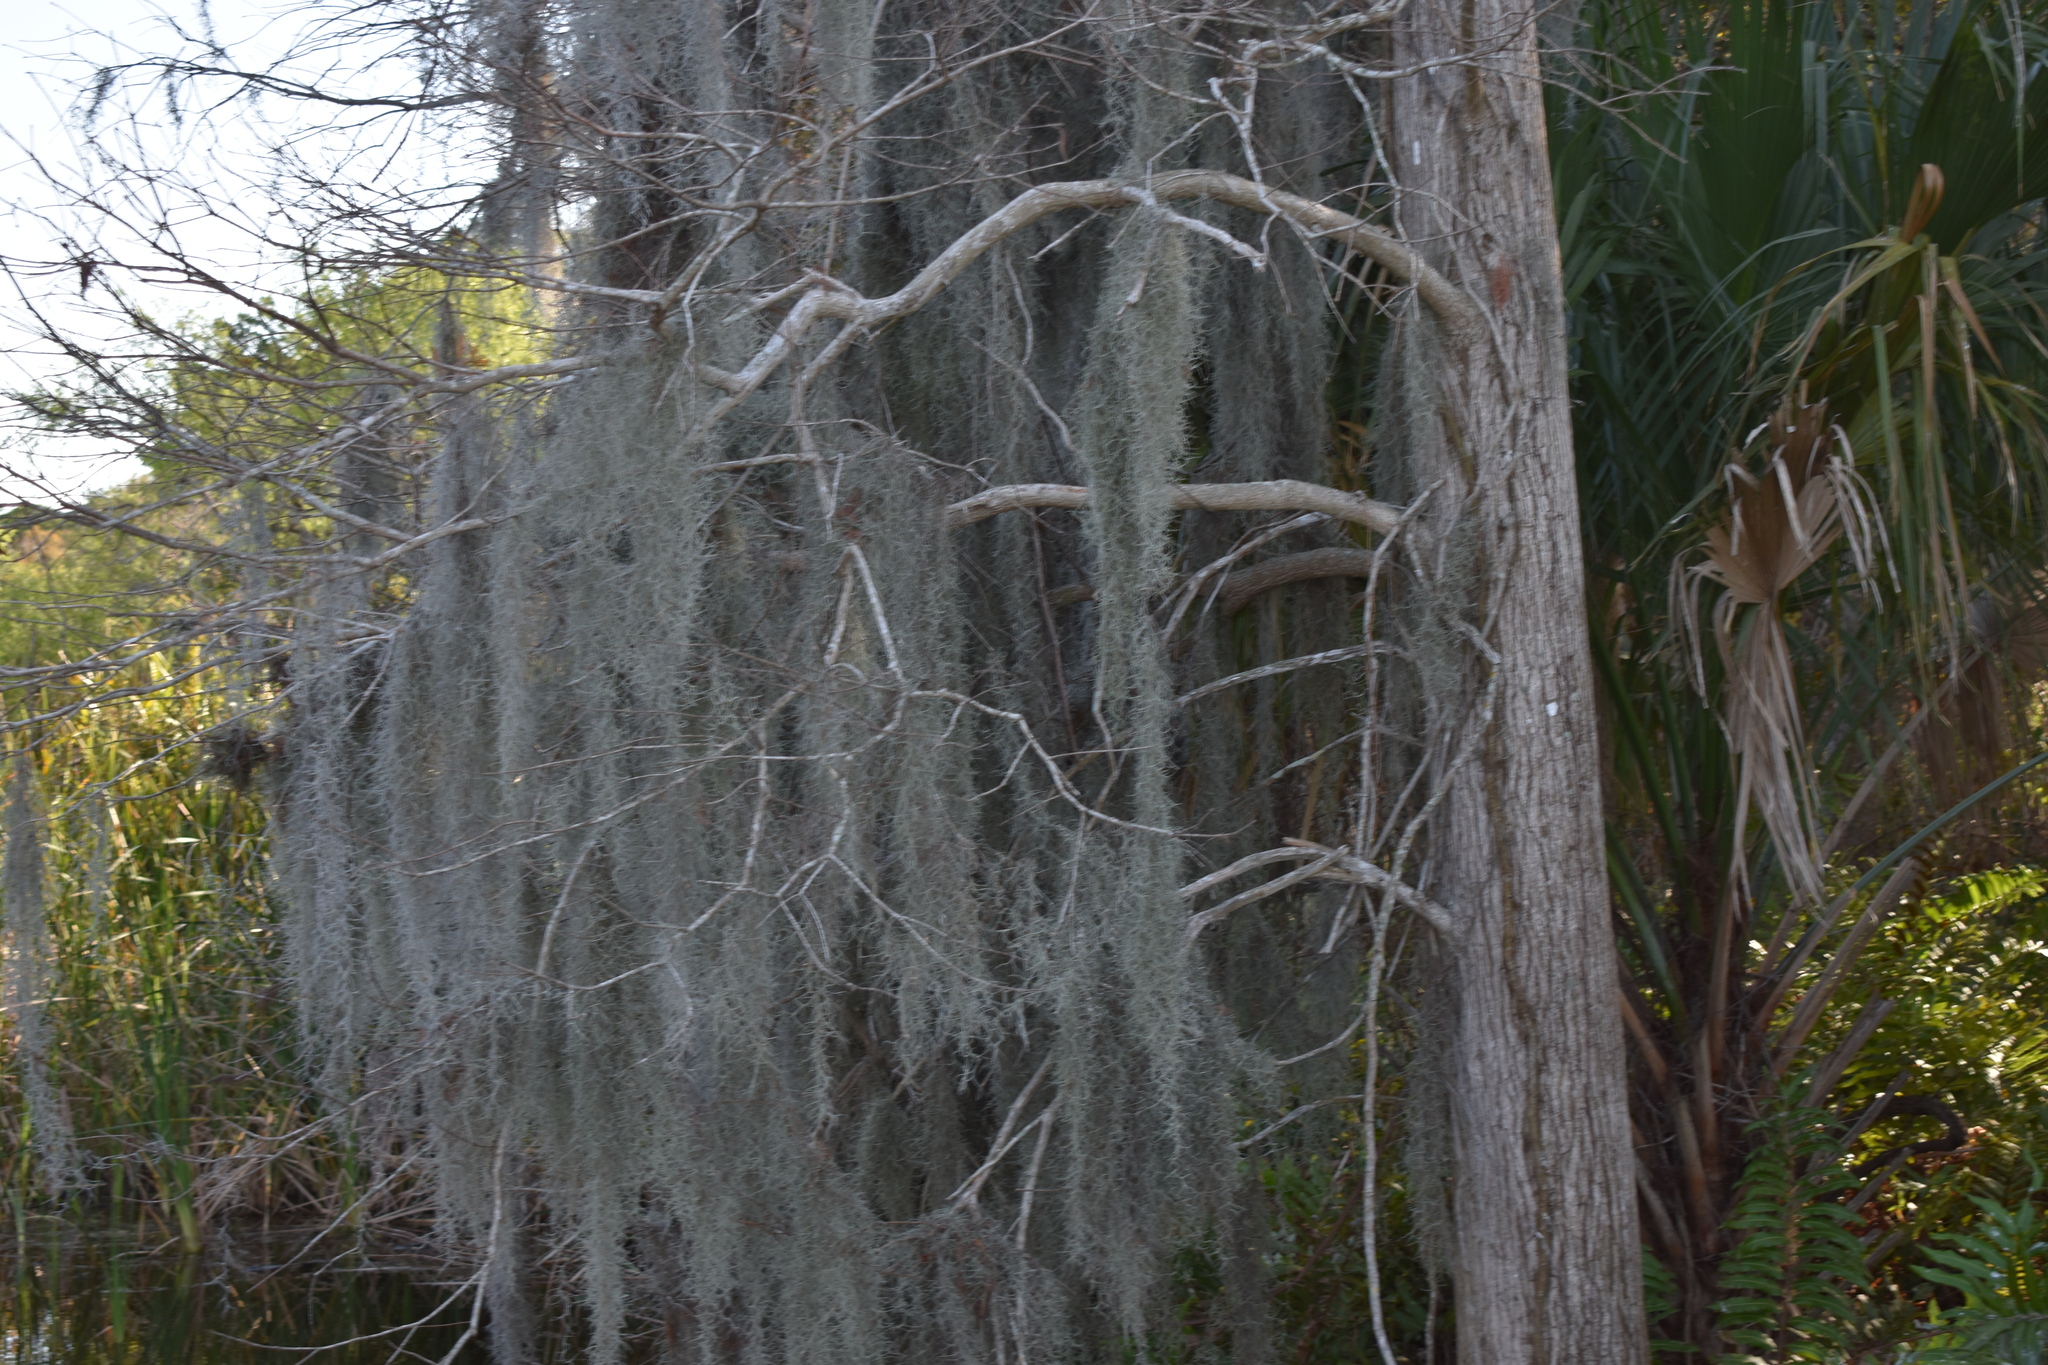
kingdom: Plantae
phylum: Tracheophyta
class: Liliopsida
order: Poales
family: Bromeliaceae
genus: Tillandsia
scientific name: Tillandsia usneoides
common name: Spanish moss
